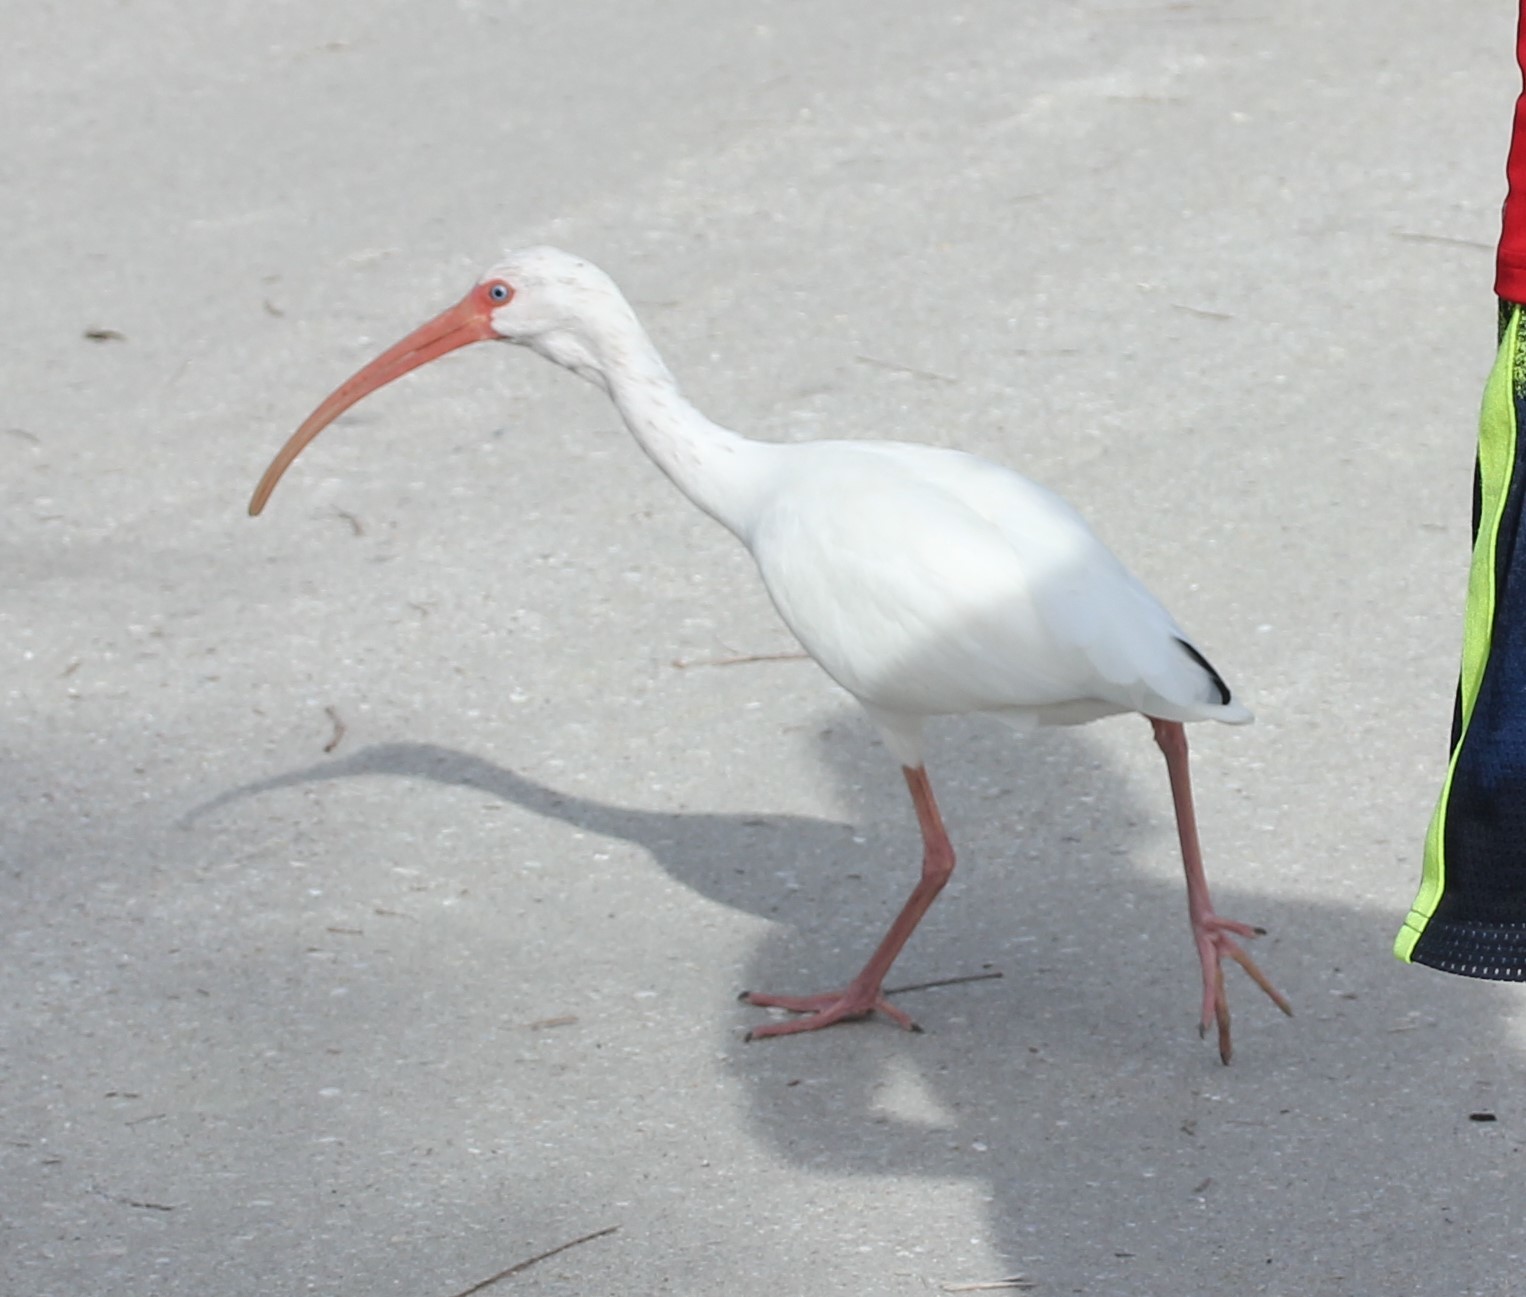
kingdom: Animalia
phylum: Chordata
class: Aves
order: Pelecaniformes
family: Threskiornithidae
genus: Eudocimus
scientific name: Eudocimus albus
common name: White ibis
